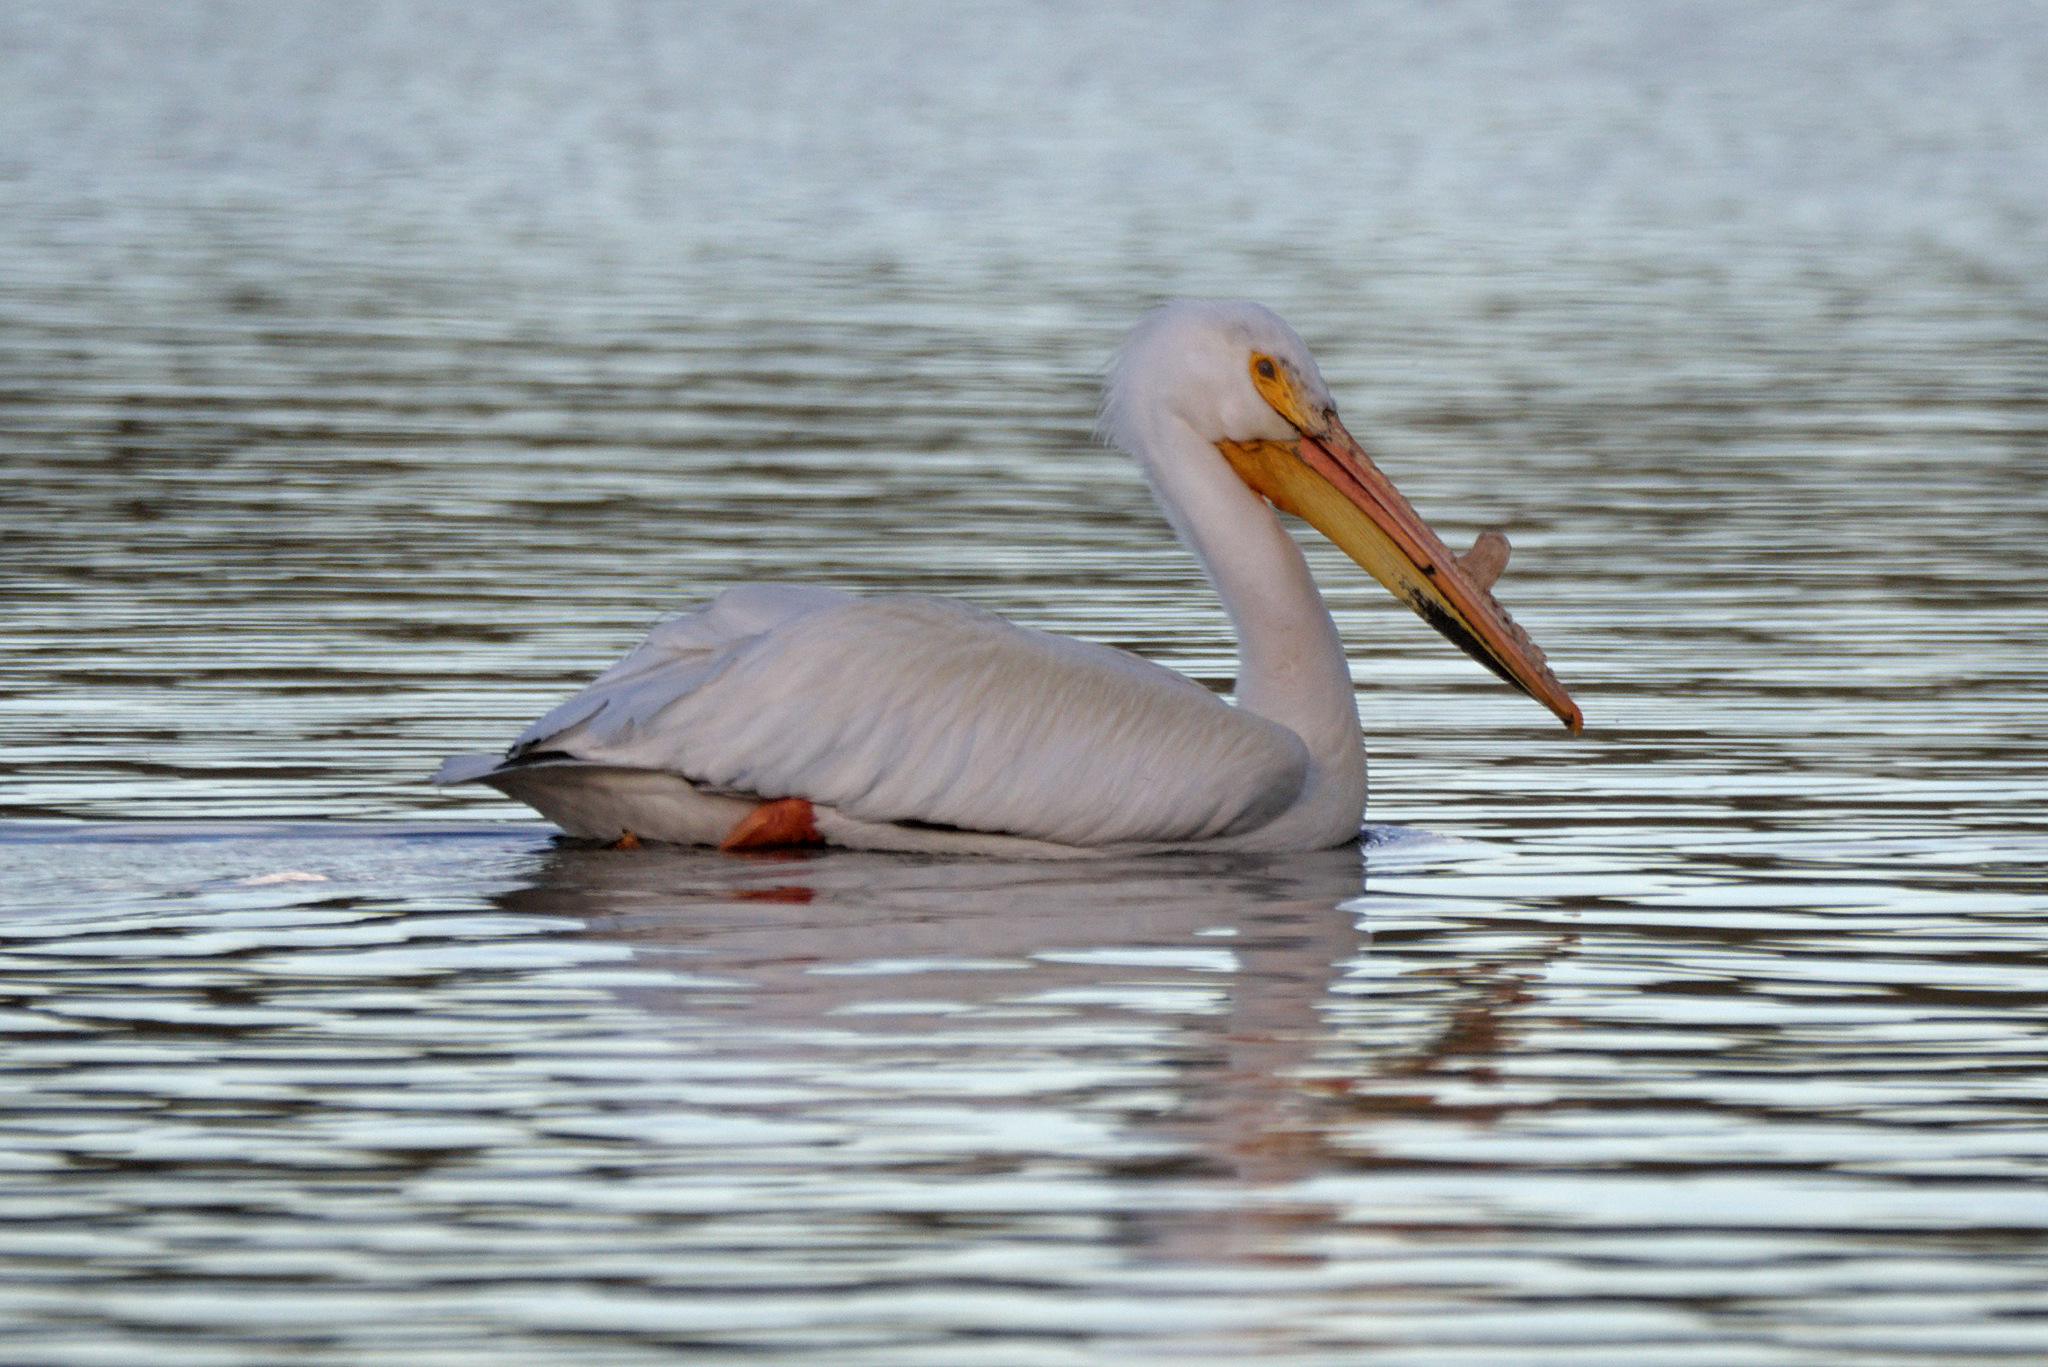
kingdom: Animalia
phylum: Chordata
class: Aves
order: Pelecaniformes
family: Pelecanidae
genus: Pelecanus
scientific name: Pelecanus erythrorhynchos
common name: American white pelican
